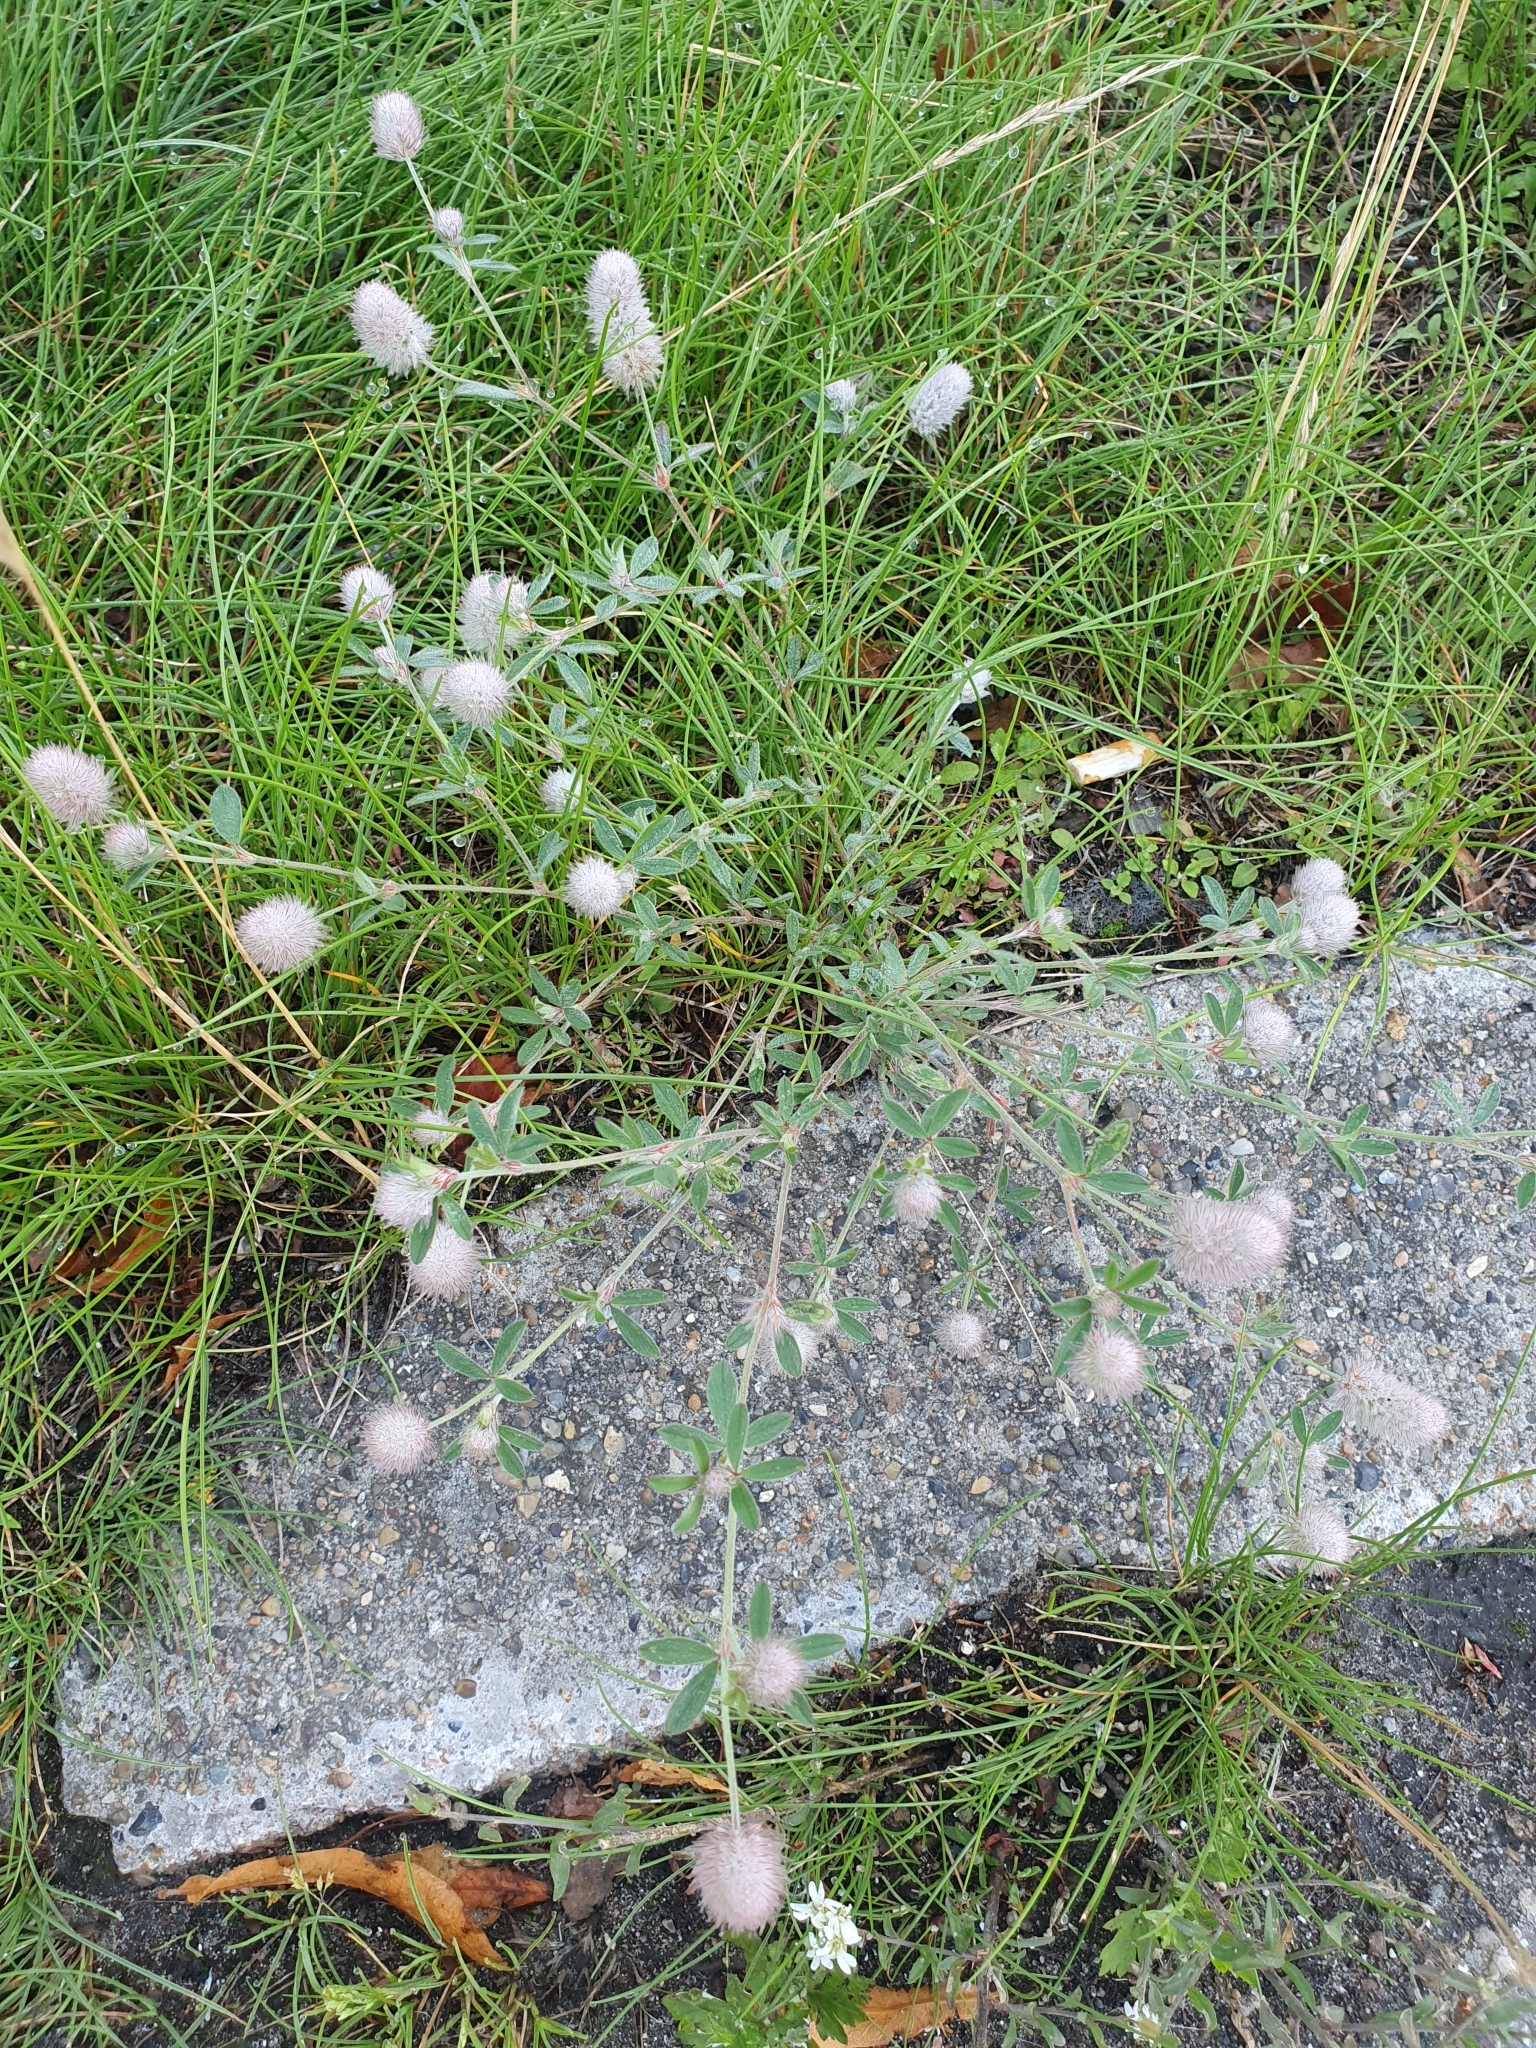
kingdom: Plantae
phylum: Tracheophyta
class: Magnoliopsida
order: Fabales
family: Fabaceae
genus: Trifolium
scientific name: Trifolium arvense
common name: Hare's-foot clover
